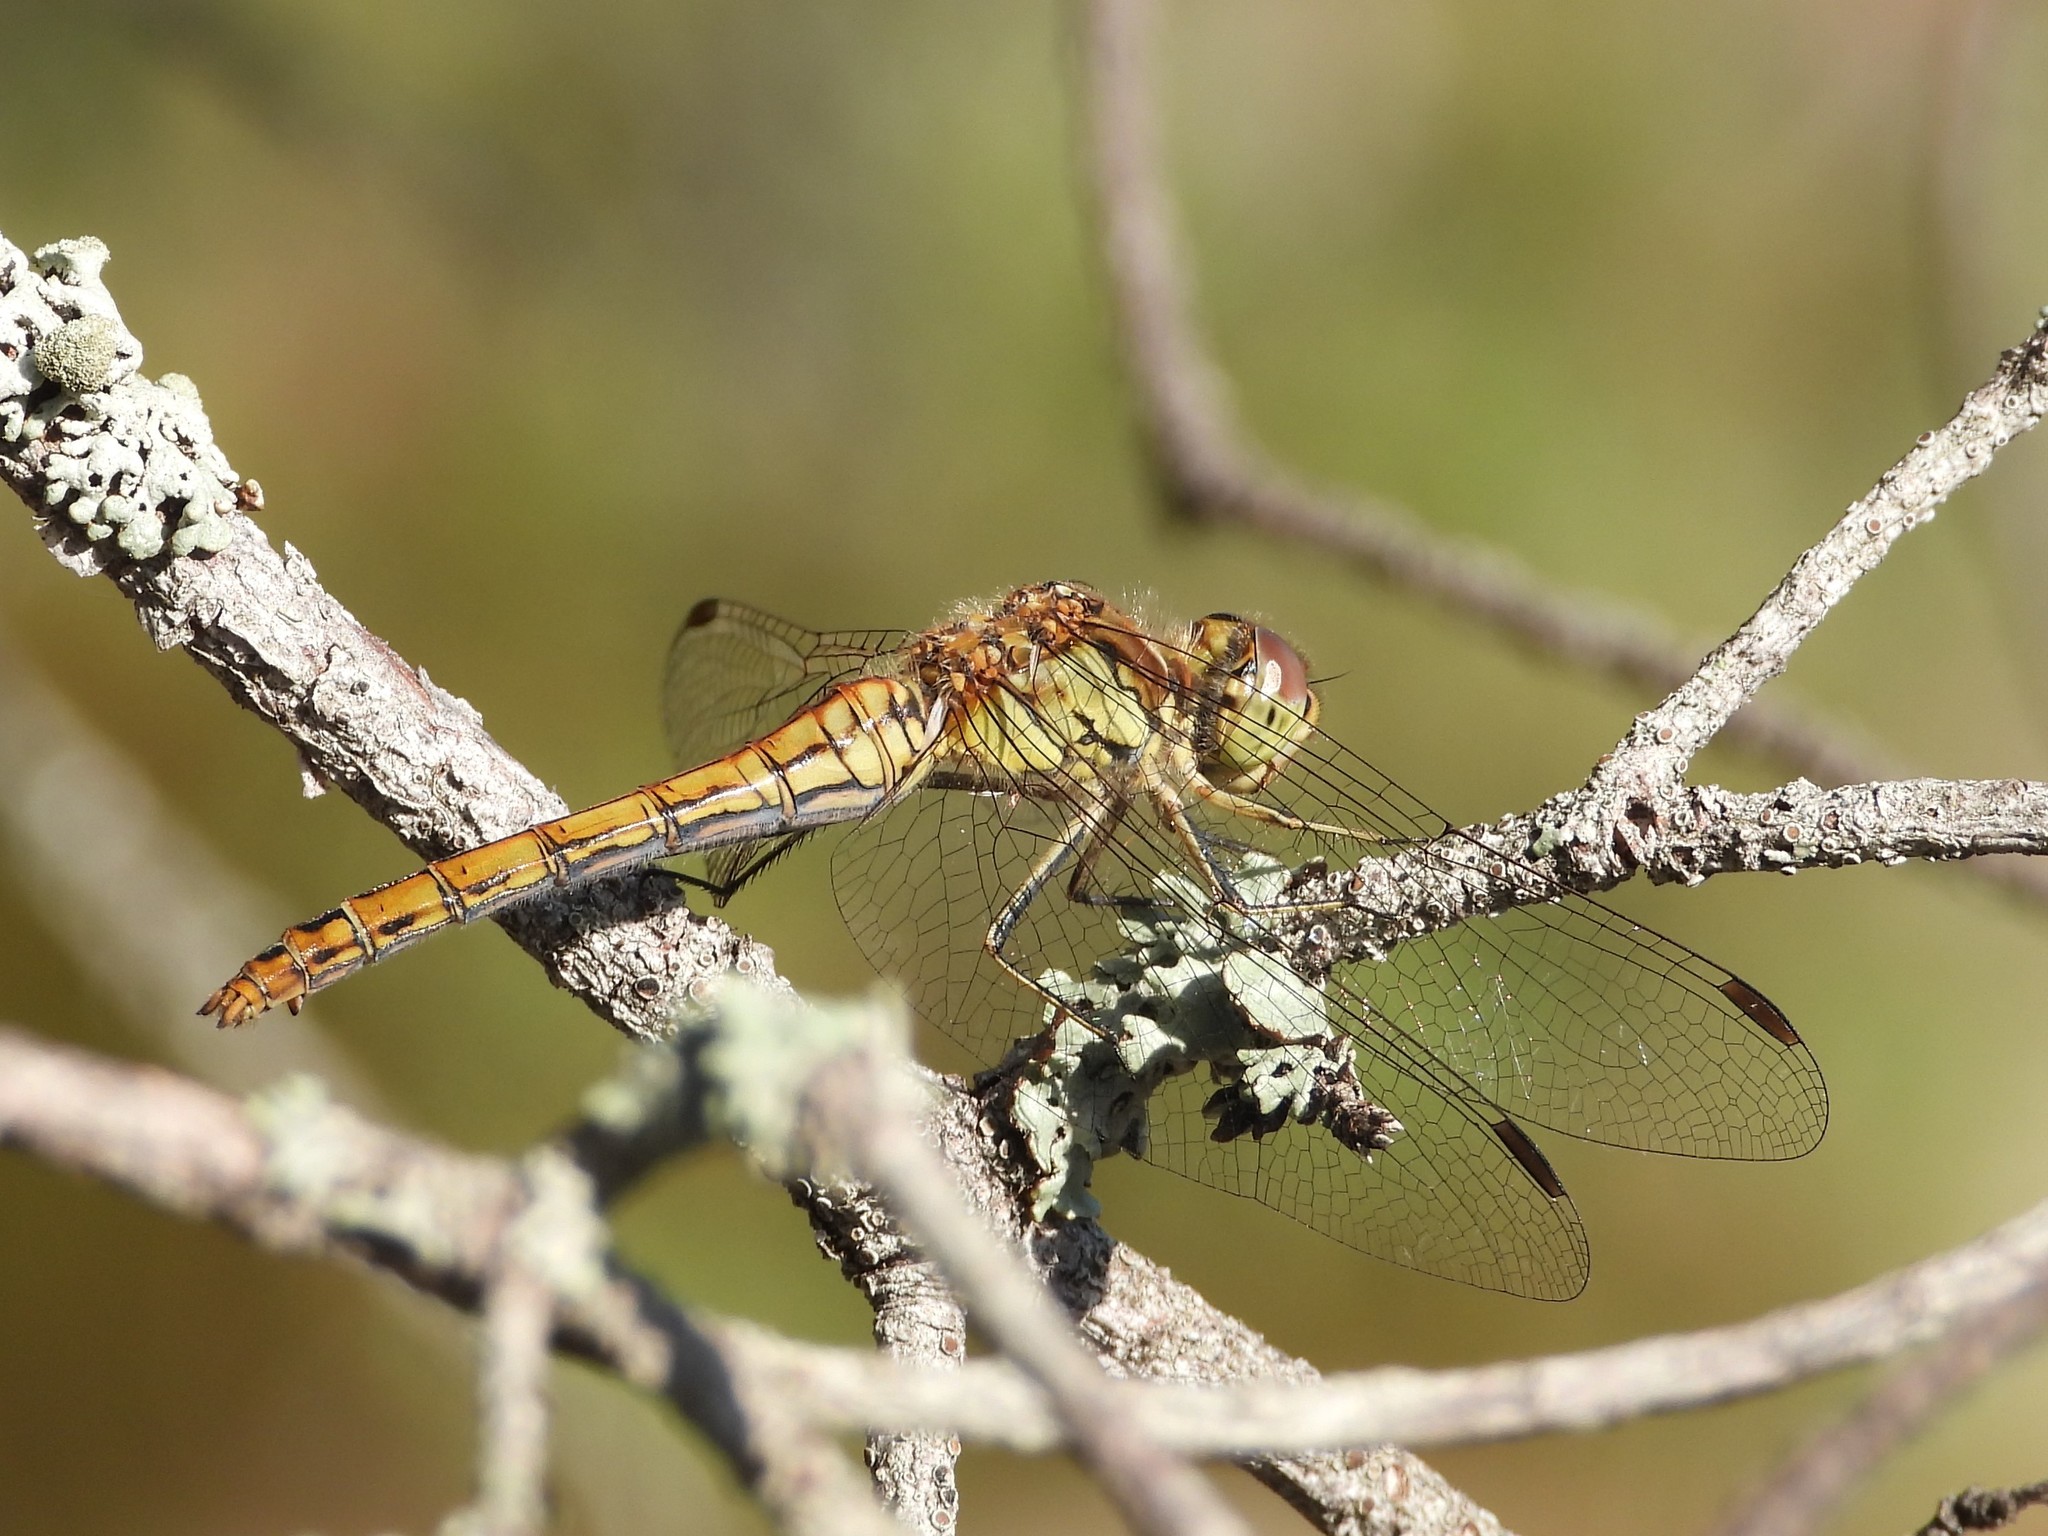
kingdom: Animalia
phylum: Arthropoda
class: Insecta
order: Odonata
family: Libellulidae
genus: Sympetrum
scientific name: Sympetrum vulgatum
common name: Vagrant darter
